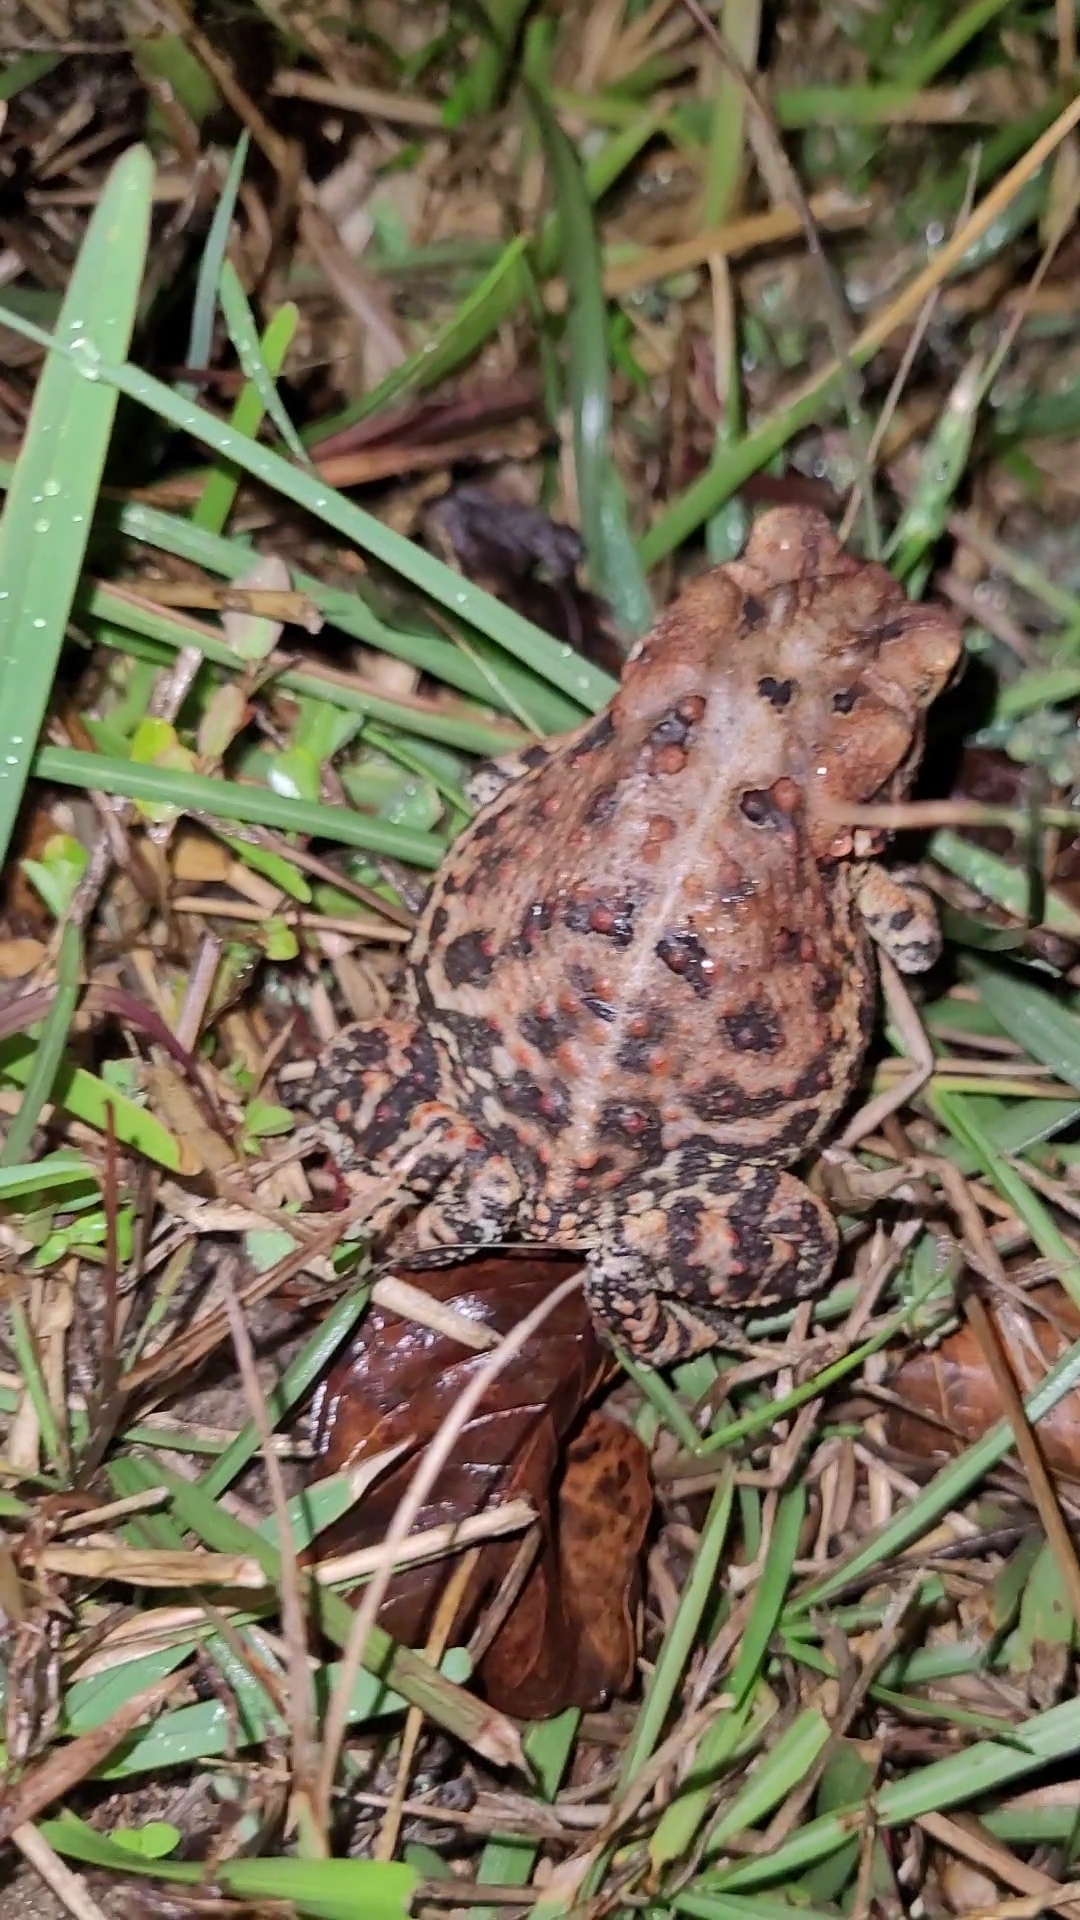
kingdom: Animalia
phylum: Chordata
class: Amphibia
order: Anura
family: Bufonidae
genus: Anaxyrus
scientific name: Anaxyrus terrestris
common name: Southern toad
